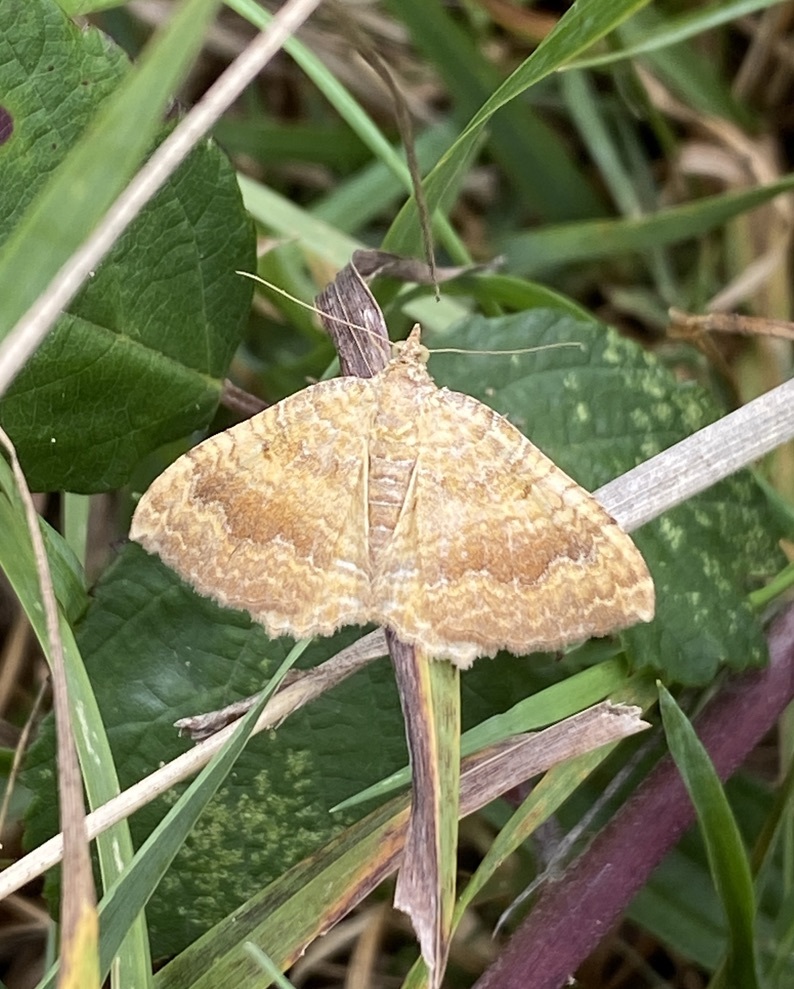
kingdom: Animalia
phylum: Arthropoda
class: Insecta
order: Lepidoptera
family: Geometridae
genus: Camptogramma
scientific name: Camptogramma bilineata
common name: Yellow shell
